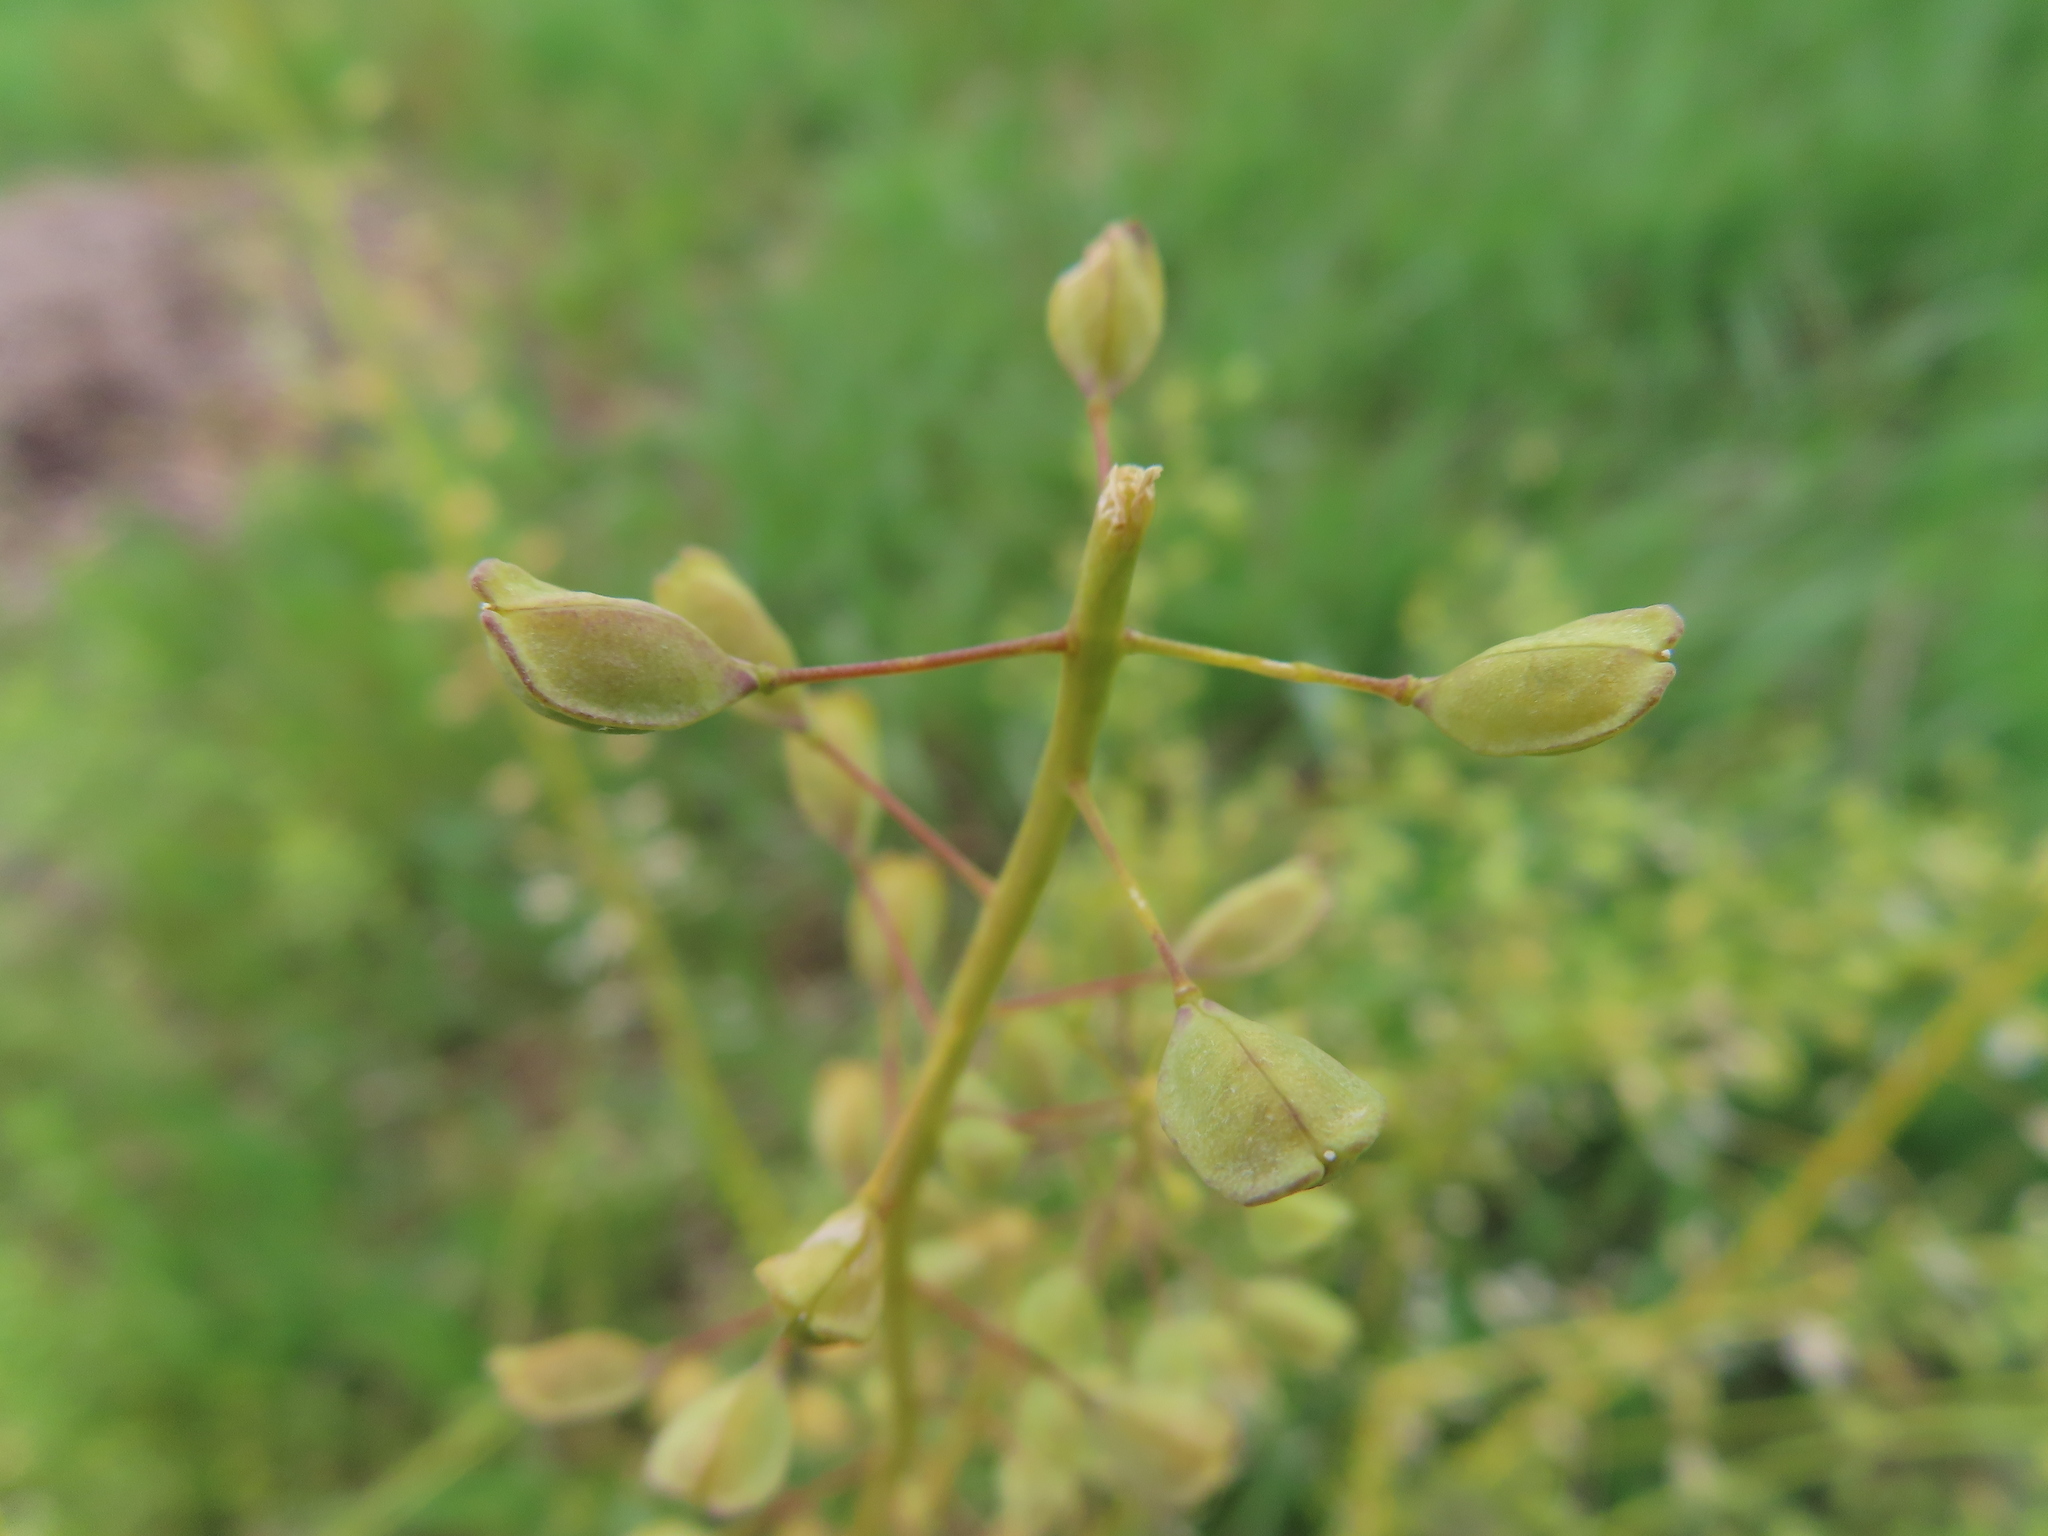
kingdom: Plantae
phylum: Tracheophyta
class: Magnoliopsida
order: Brassicales
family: Brassicaceae
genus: Mummenhoffia
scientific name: Mummenhoffia alliacea
